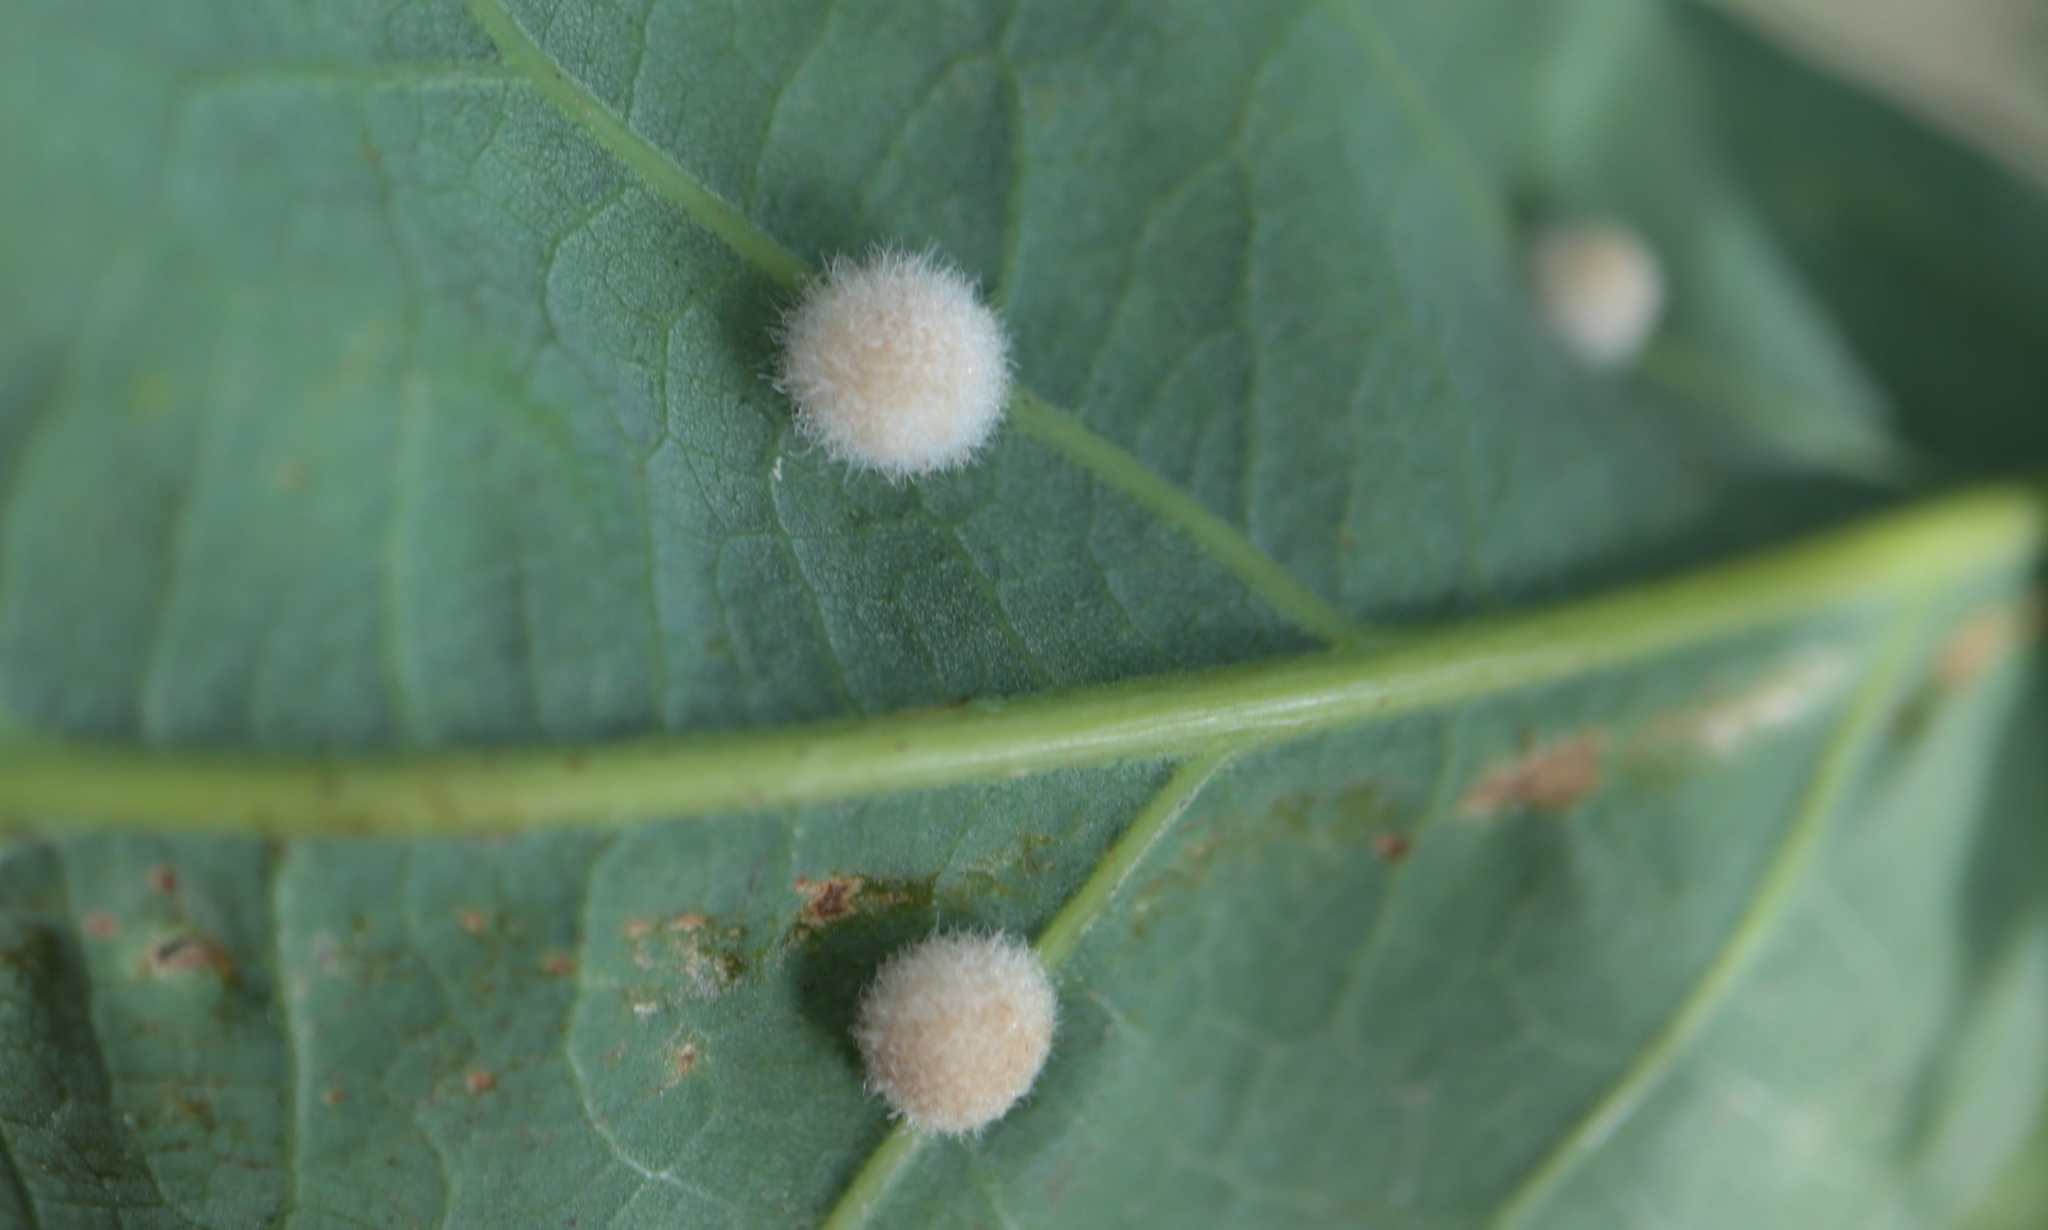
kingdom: Animalia
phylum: Arthropoda
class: Insecta
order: Hymenoptera
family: Cynipidae
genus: Philonix
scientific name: Philonix fulvicollis
